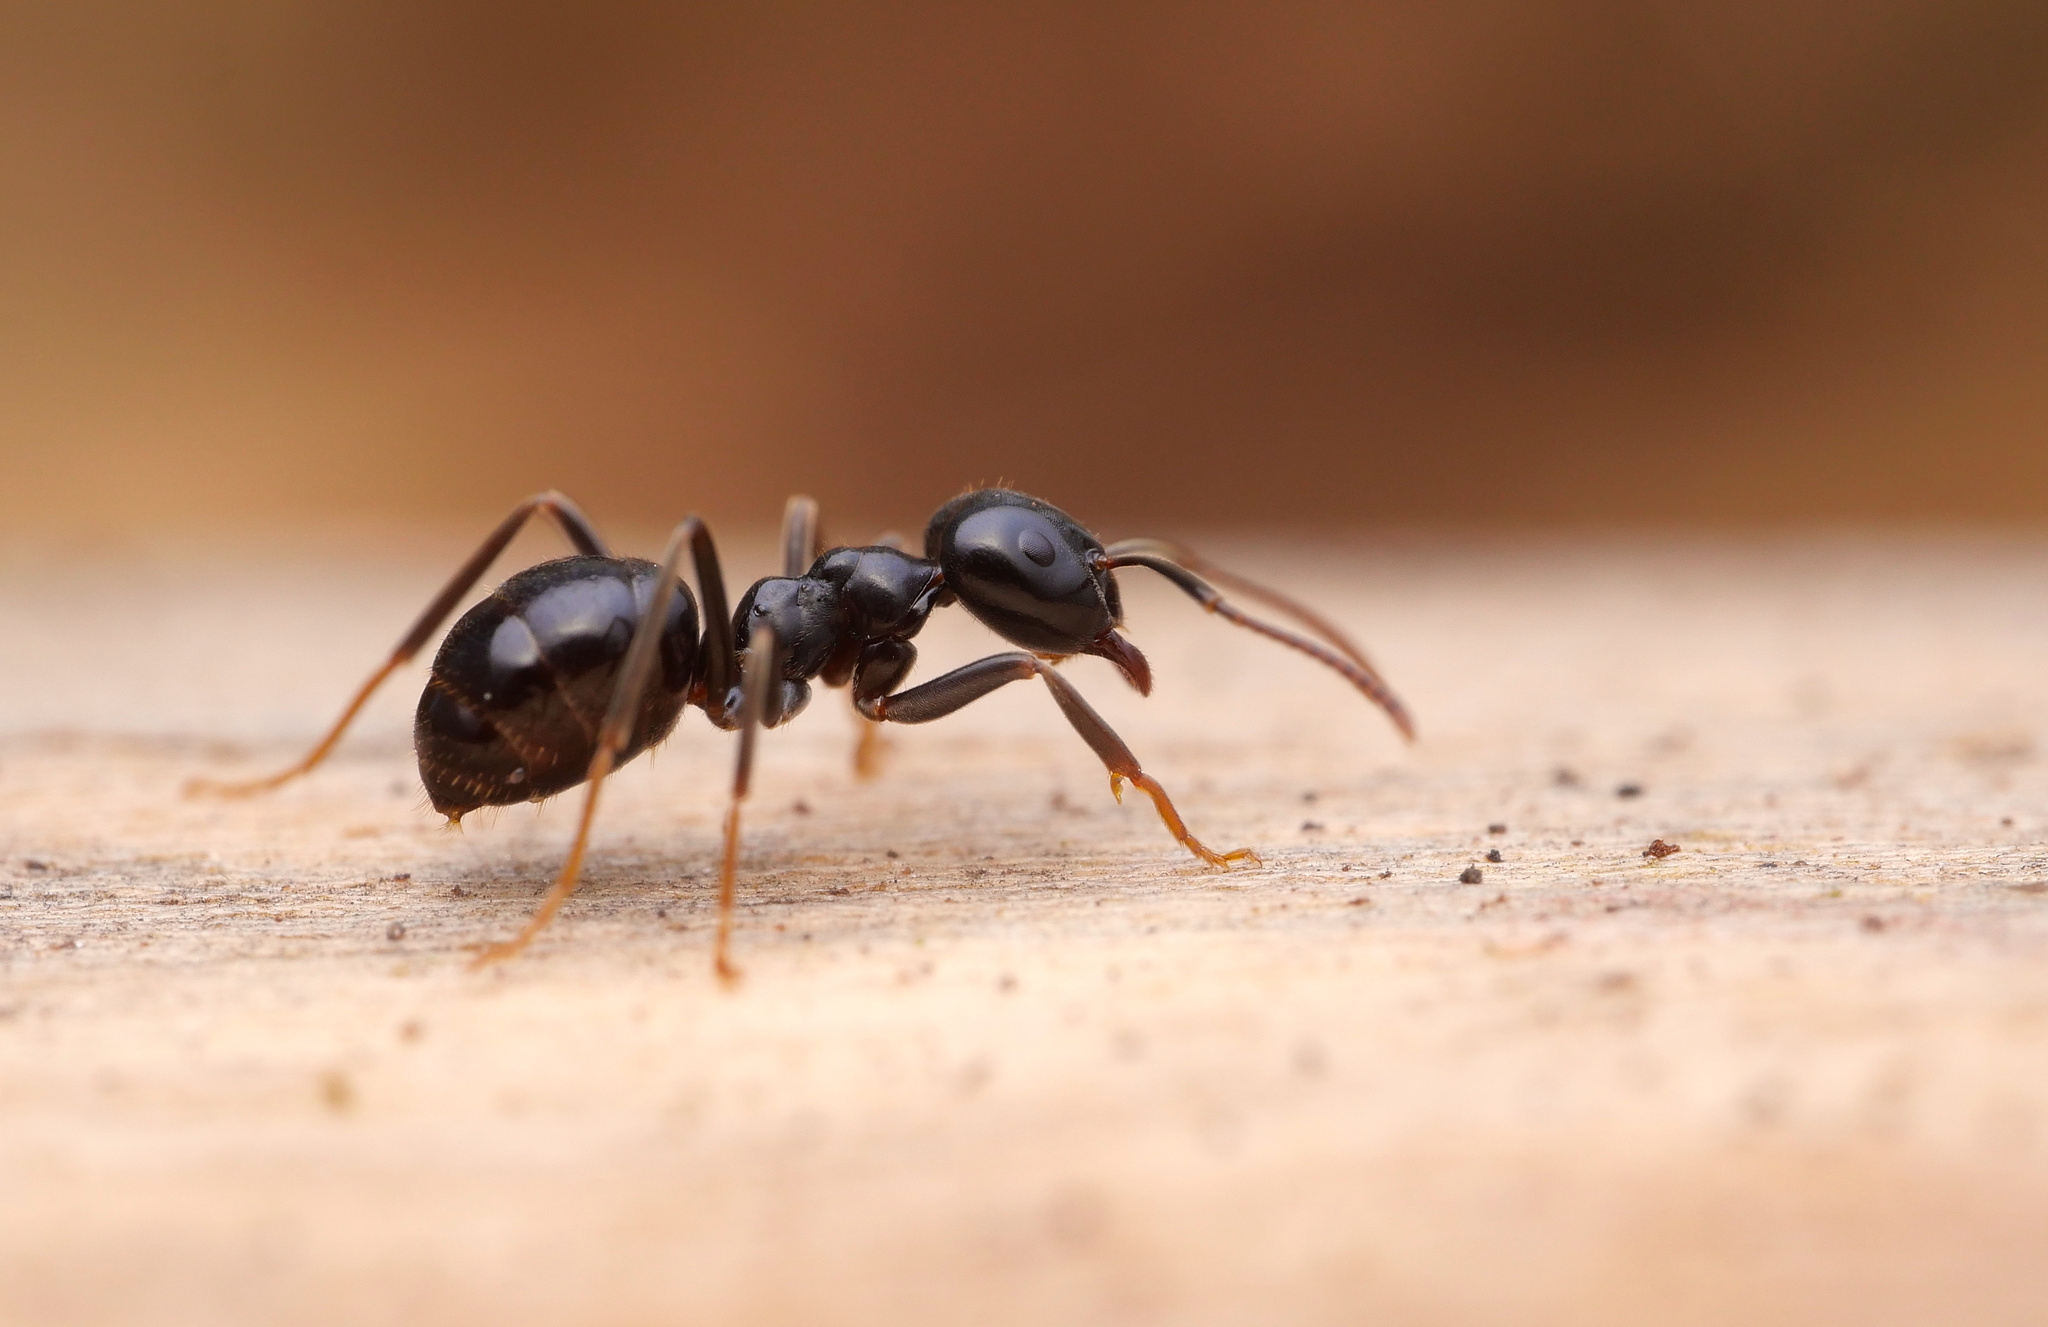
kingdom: Animalia
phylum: Arthropoda
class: Insecta
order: Hymenoptera
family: Formicidae
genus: Lasius
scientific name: Lasius fuliginosus
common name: Jet ant
